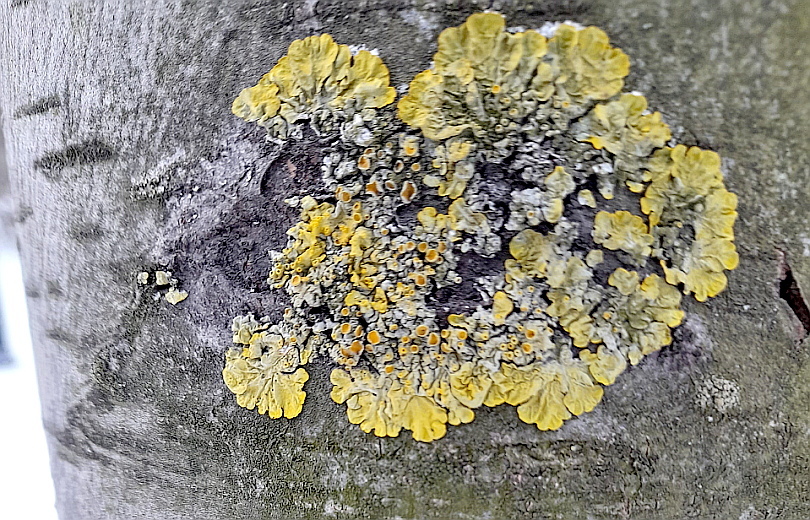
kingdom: Fungi
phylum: Ascomycota
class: Lecanoromycetes
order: Teloschistales
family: Teloschistaceae
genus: Xanthoria
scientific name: Xanthoria parietina
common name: Common orange lichen
